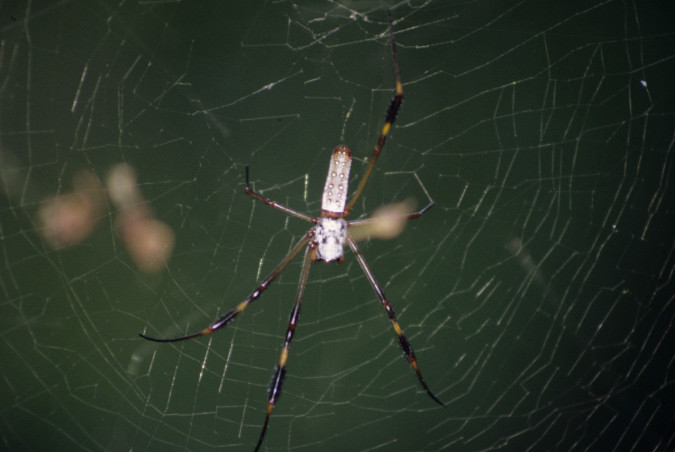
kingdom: Animalia
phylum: Arthropoda
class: Arachnida
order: Araneae
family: Araneidae
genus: Trichonephila
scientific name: Trichonephila clavipes
